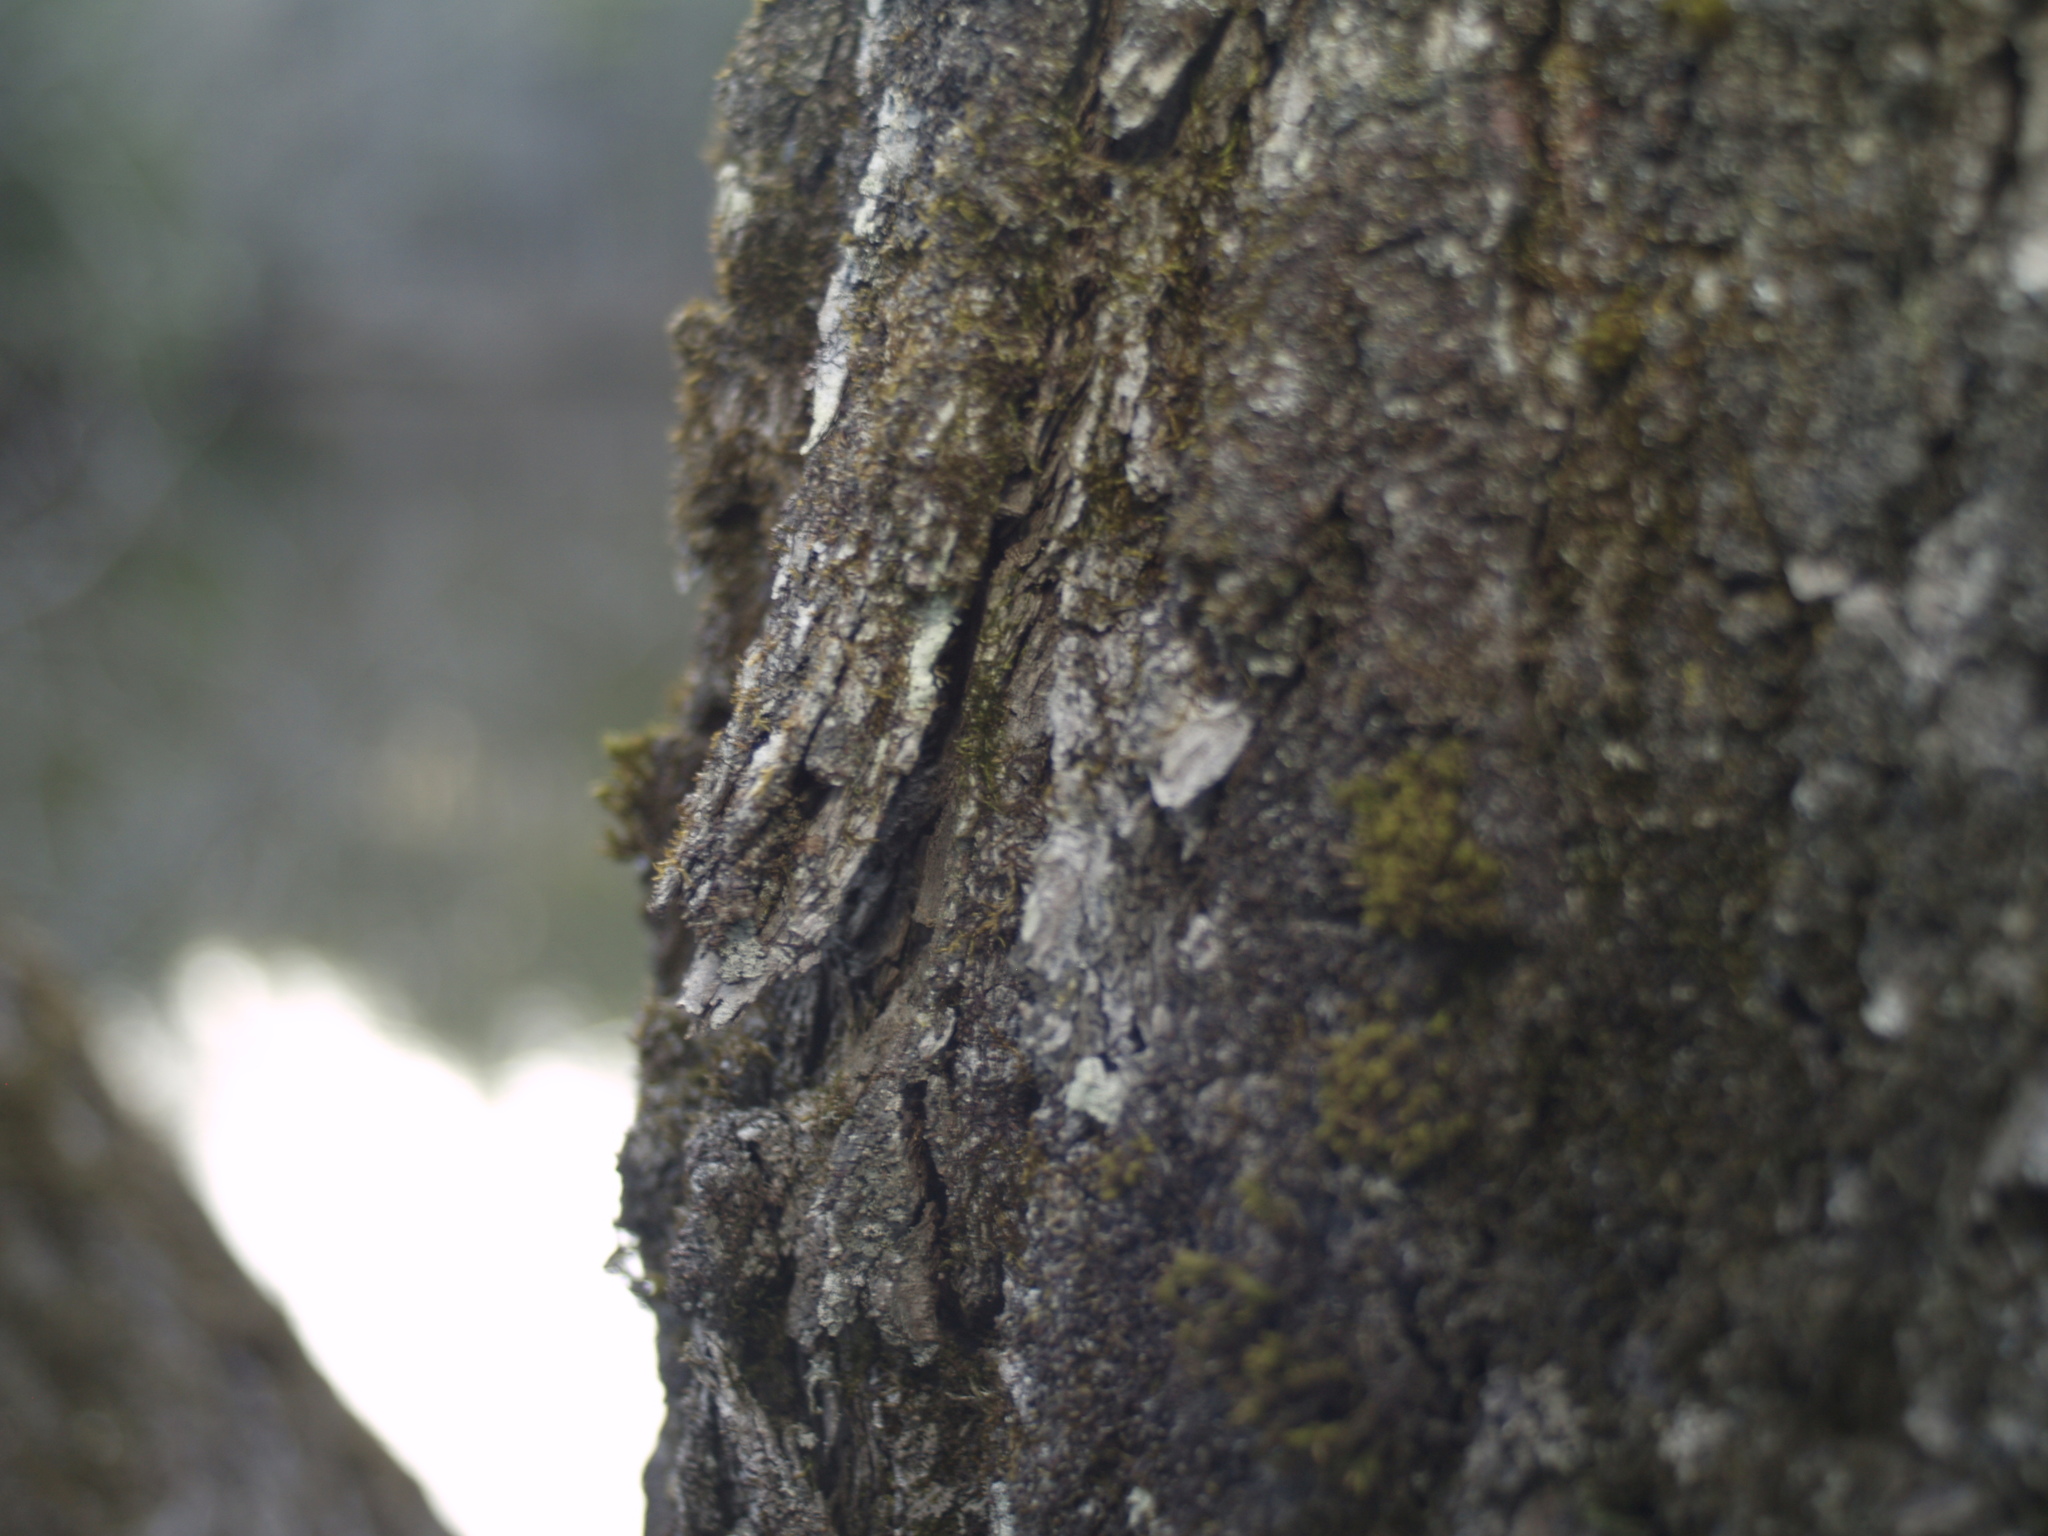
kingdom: Plantae
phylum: Bryophyta
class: Bryopsida
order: Orthotrichales
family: Orthotrichaceae
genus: Ulota
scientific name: Ulota crispa
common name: Crisped pincushion moss
